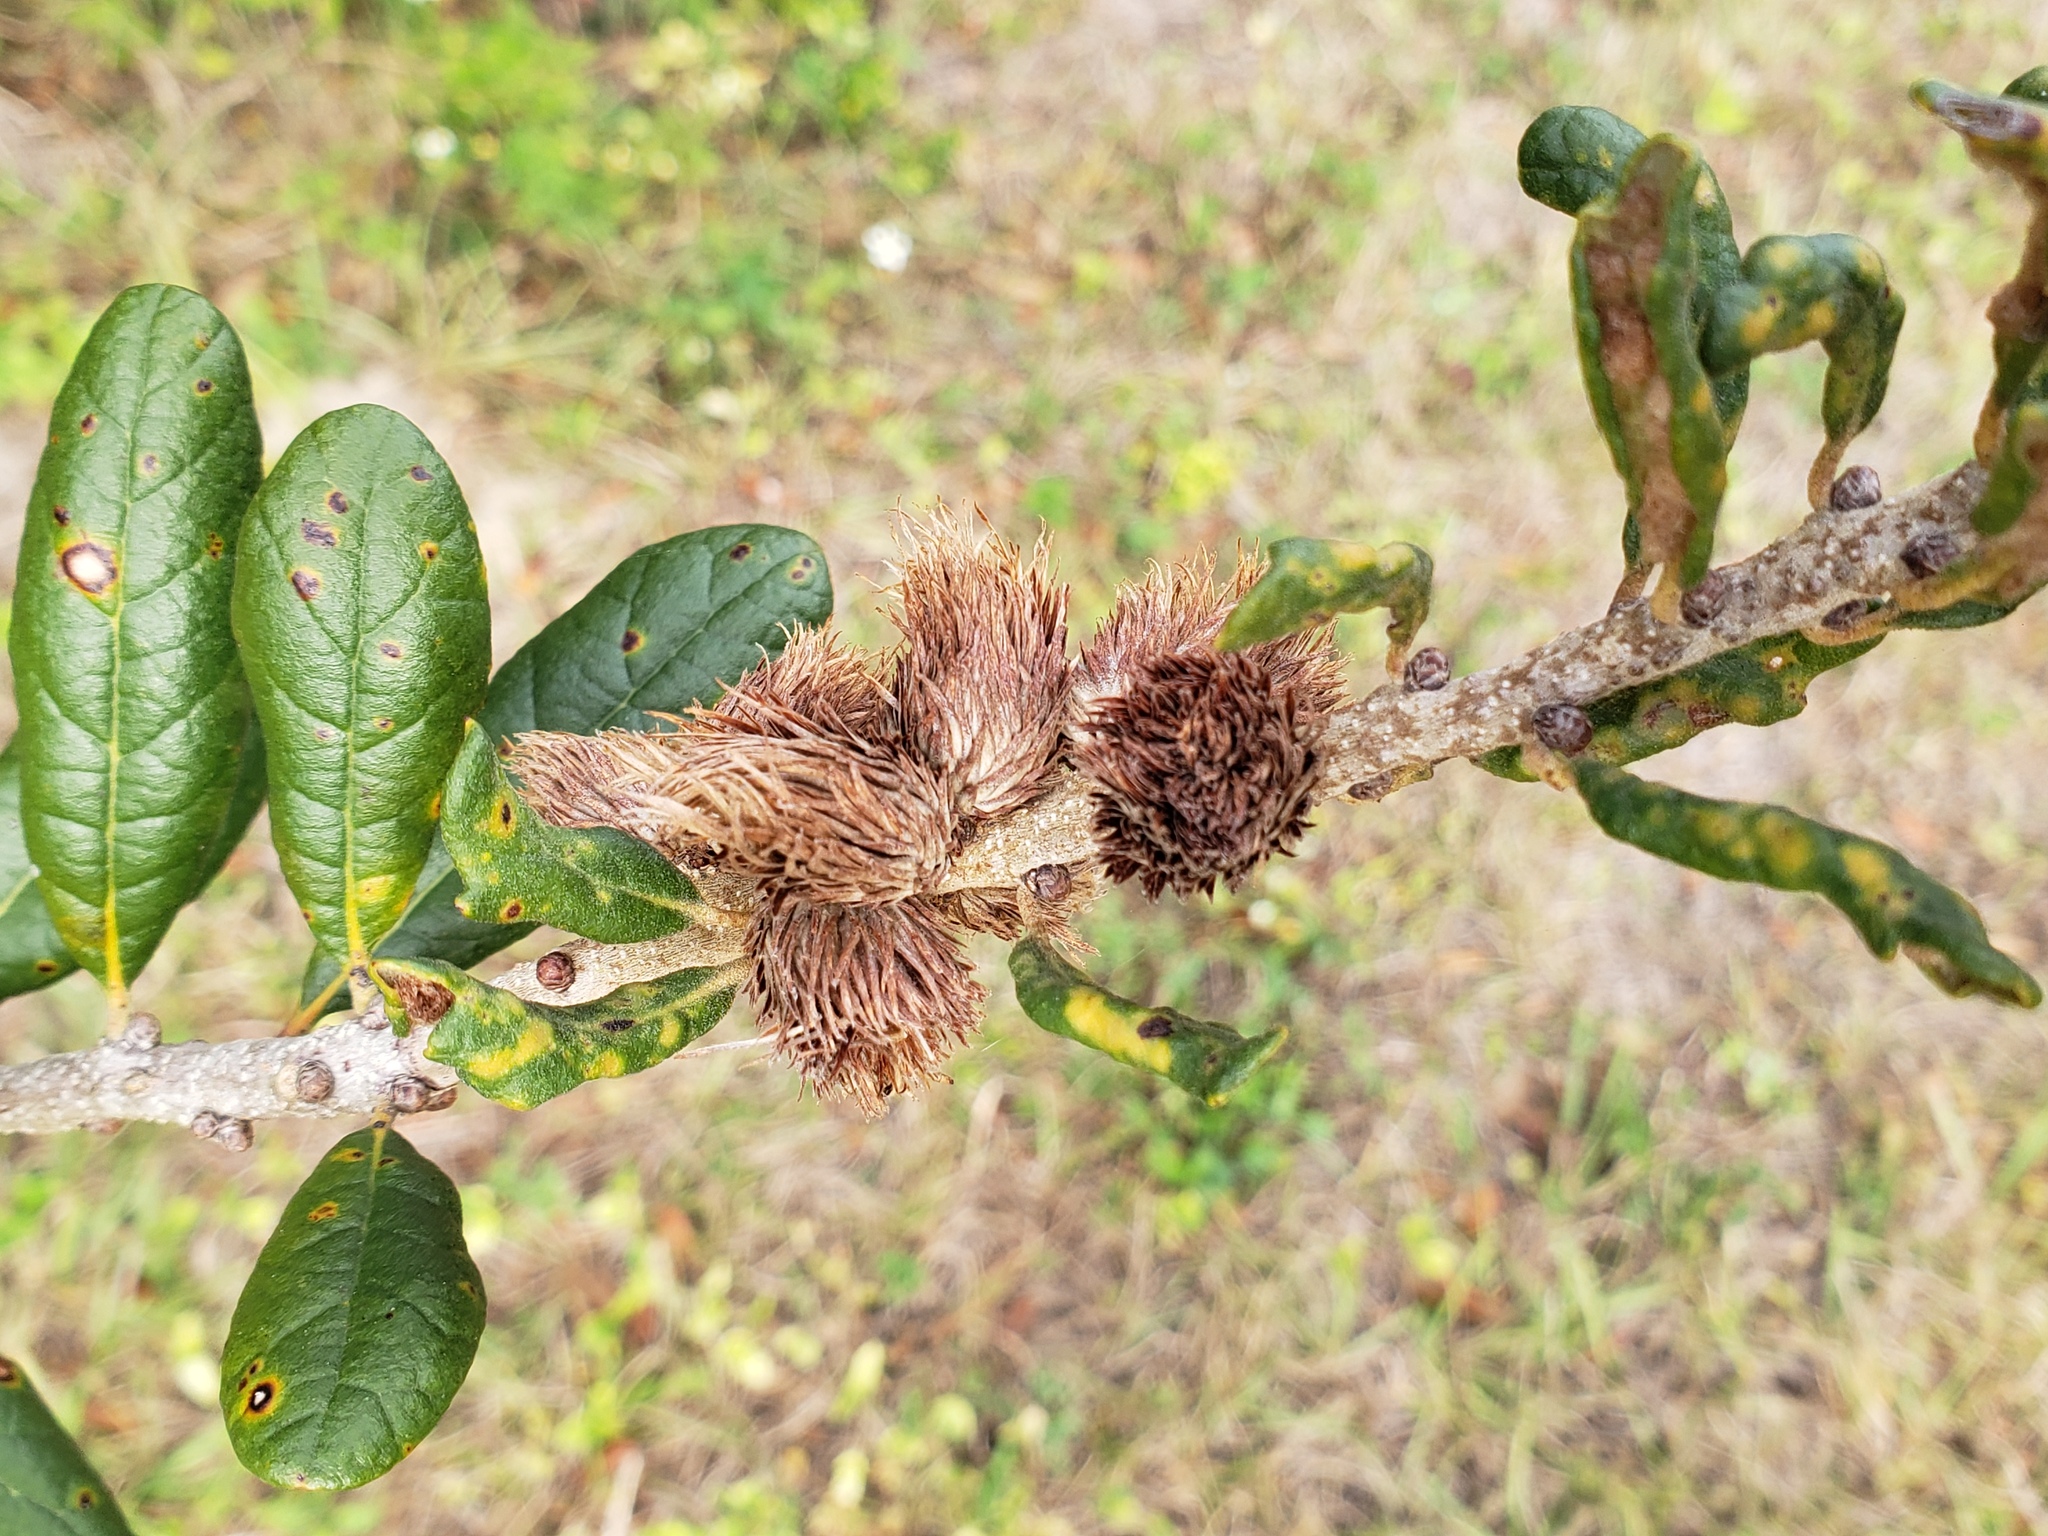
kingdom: Animalia
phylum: Arthropoda
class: Insecta
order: Hymenoptera
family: Cynipidae
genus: Andricus
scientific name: Andricus quercusfoliatus
